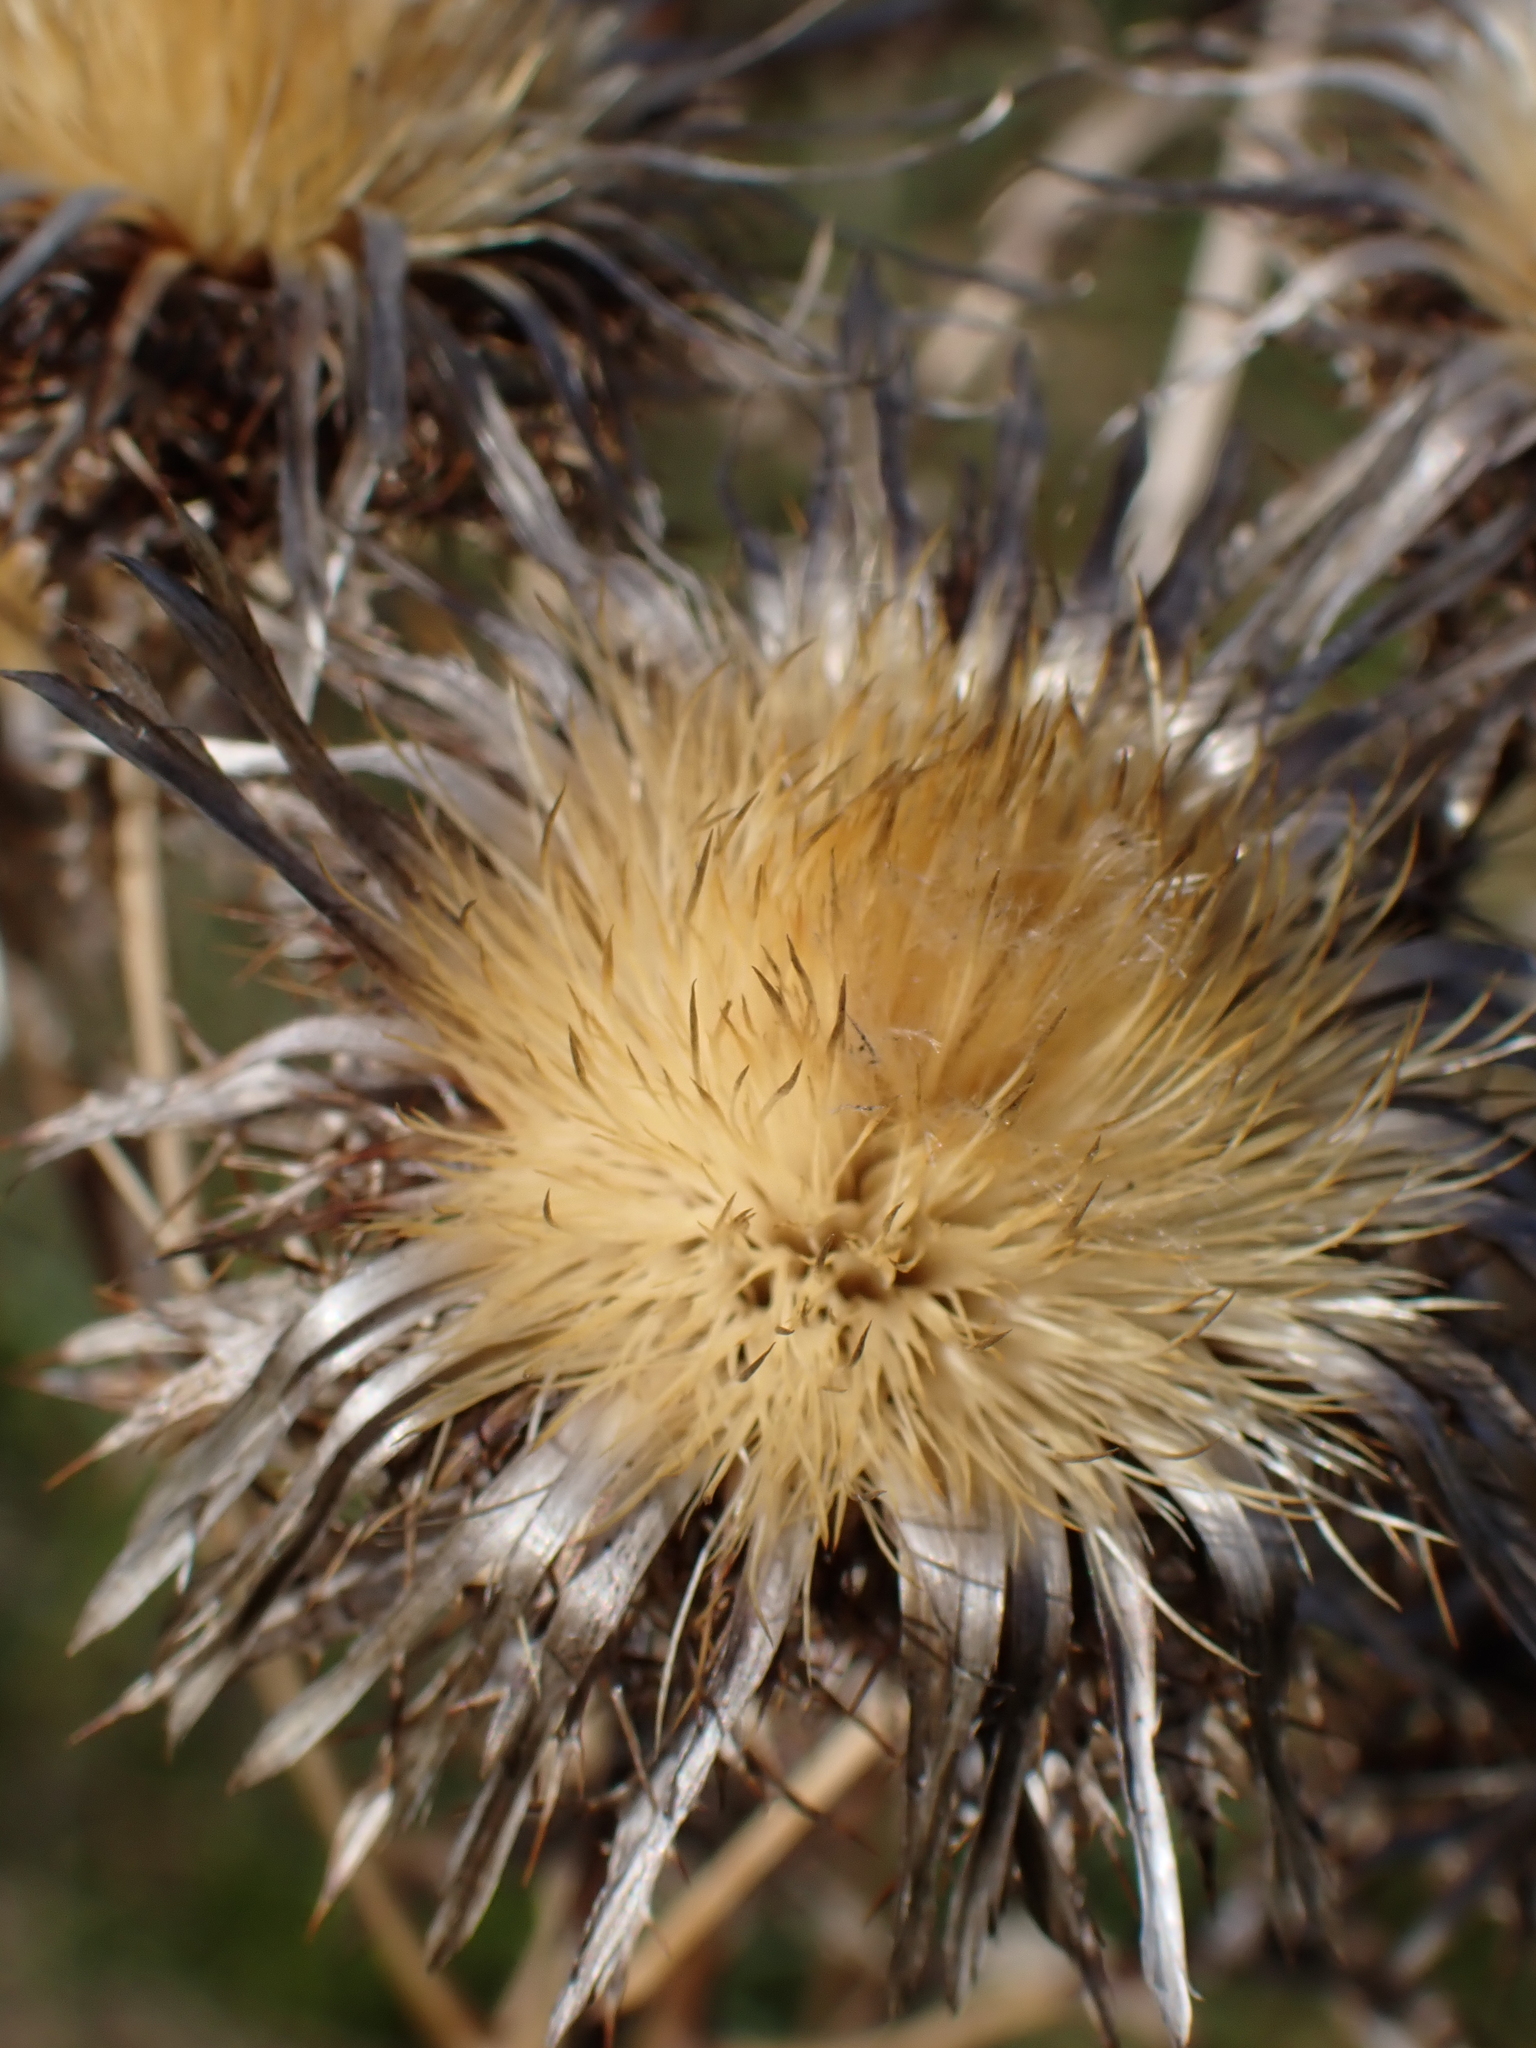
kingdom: Plantae
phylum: Tracheophyta
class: Magnoliopsida
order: Asterales
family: Asteraceae
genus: Carlina
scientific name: Carlina vulgaris
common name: Carline thistle
